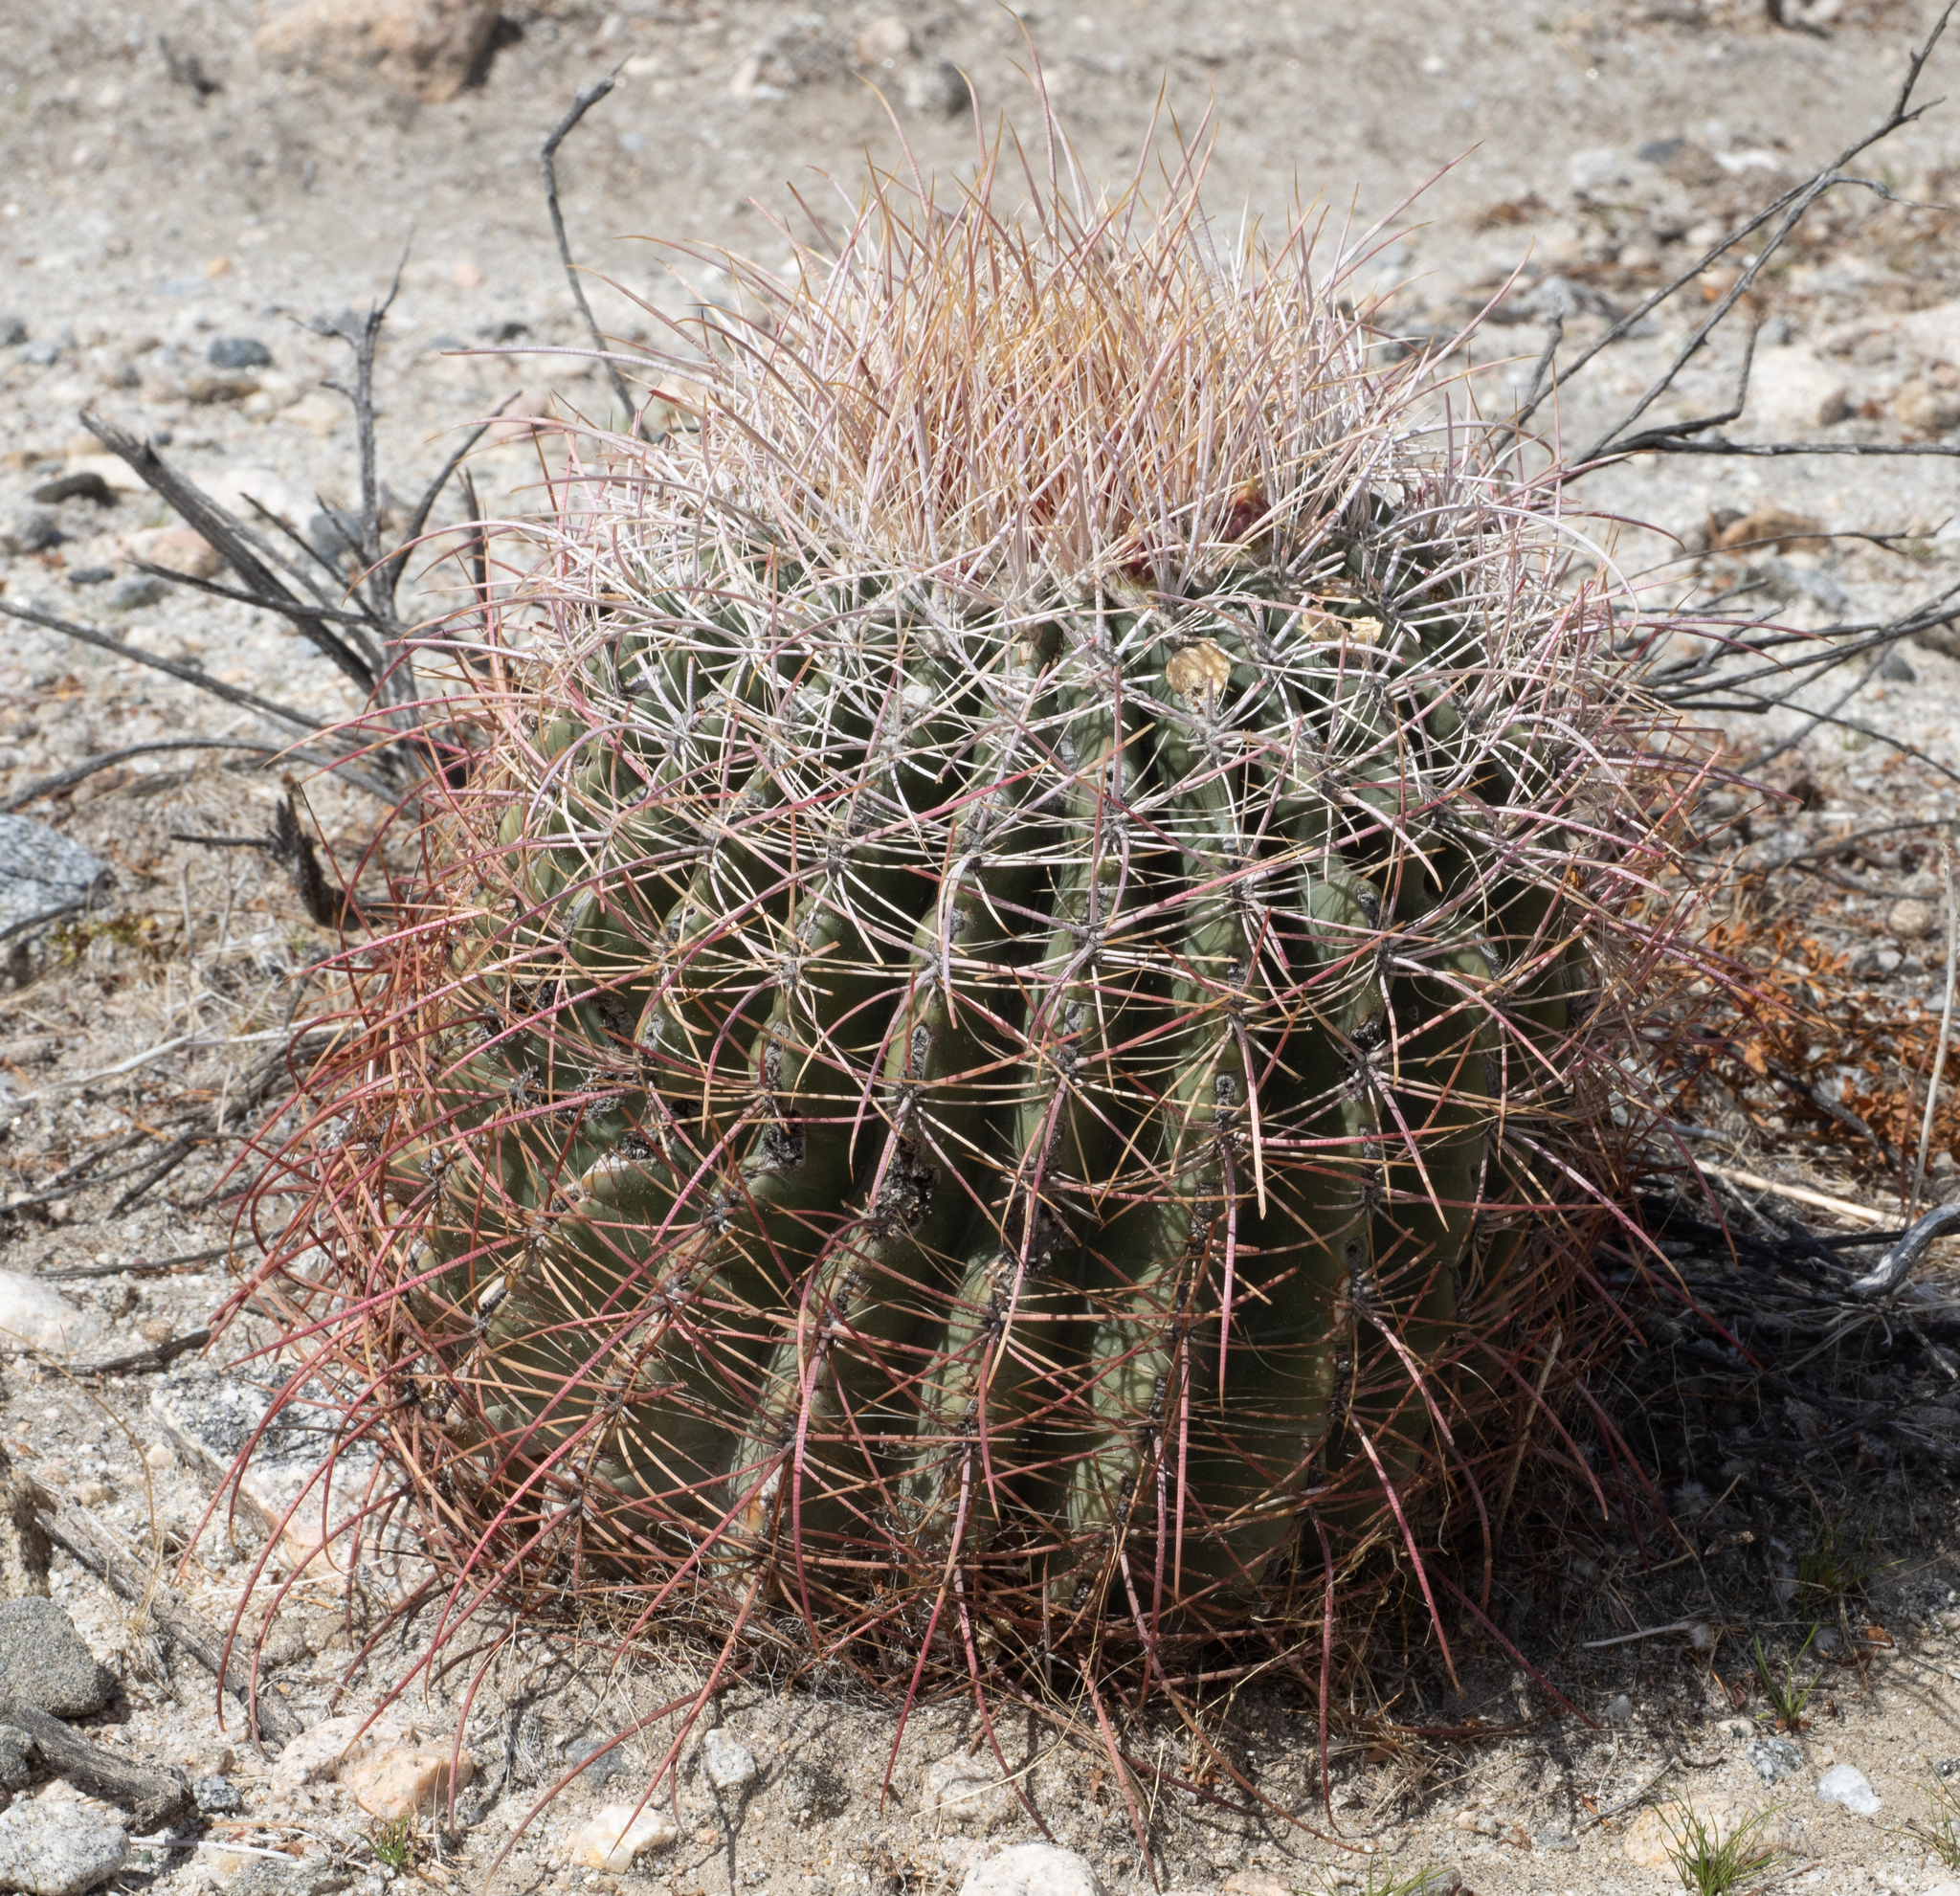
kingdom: Plantae
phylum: Tracheophyta
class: Magnoliopsida
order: Caryophyllales
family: Cactaceae
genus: Ferocactus
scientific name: Ferocactus cylindraceus
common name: California barrel cactus
